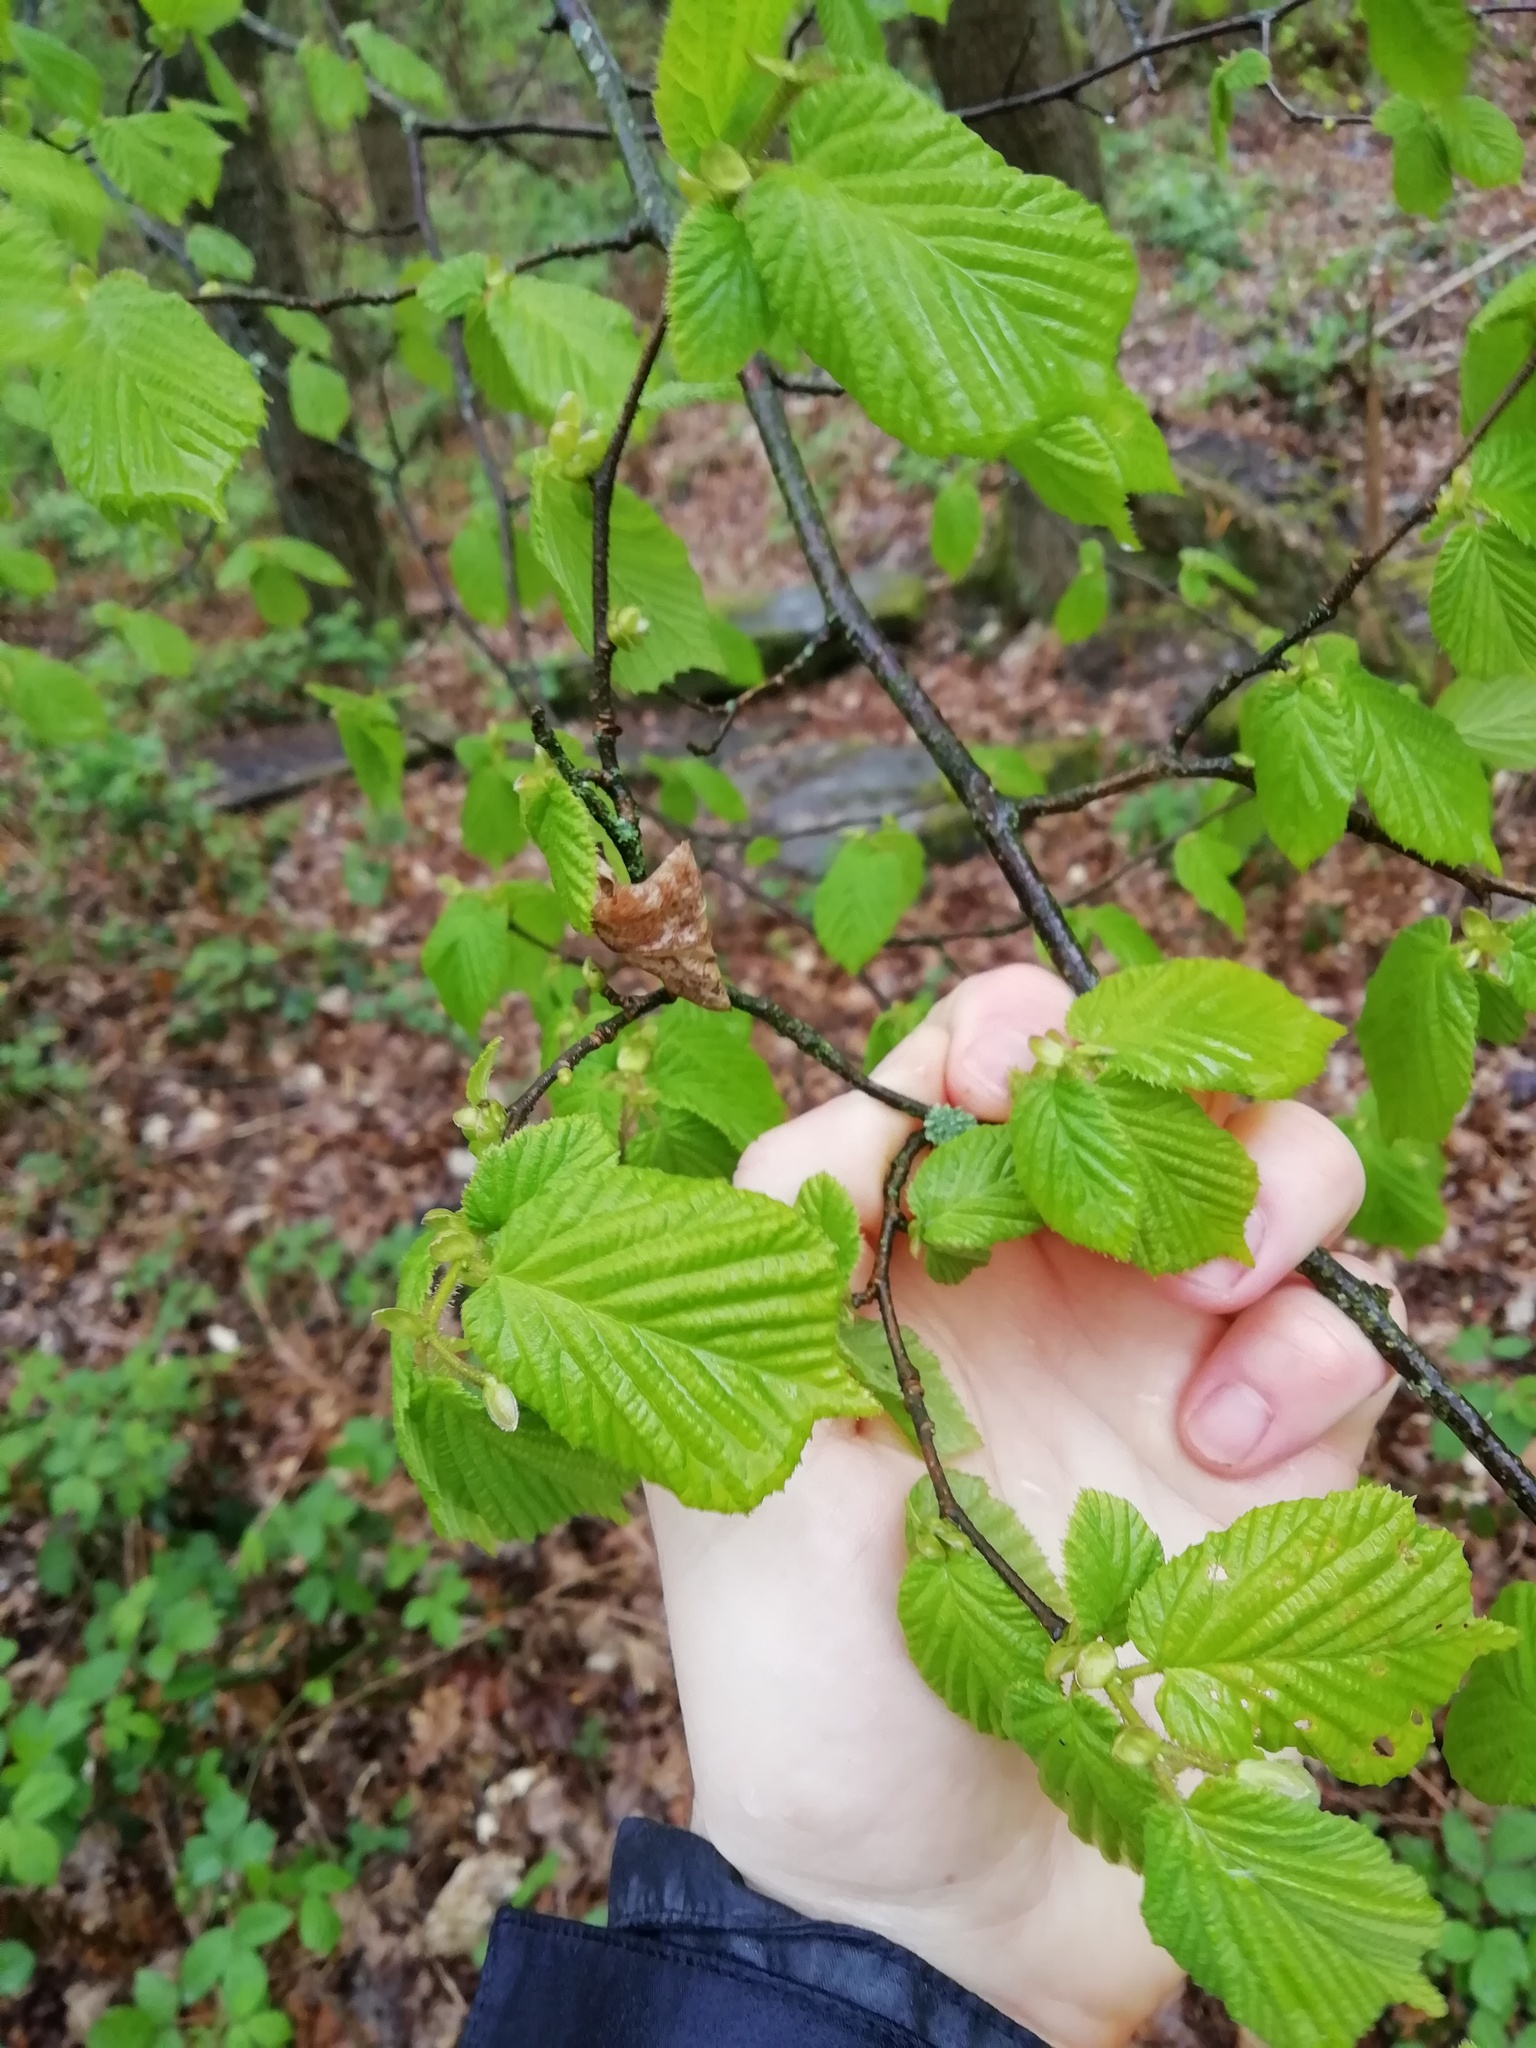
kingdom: Plantae
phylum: Tracheophyta
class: Magnoliopsida
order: Fagales
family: Betulaceae
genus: Corylus
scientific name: Corylus avellana
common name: European hazel
